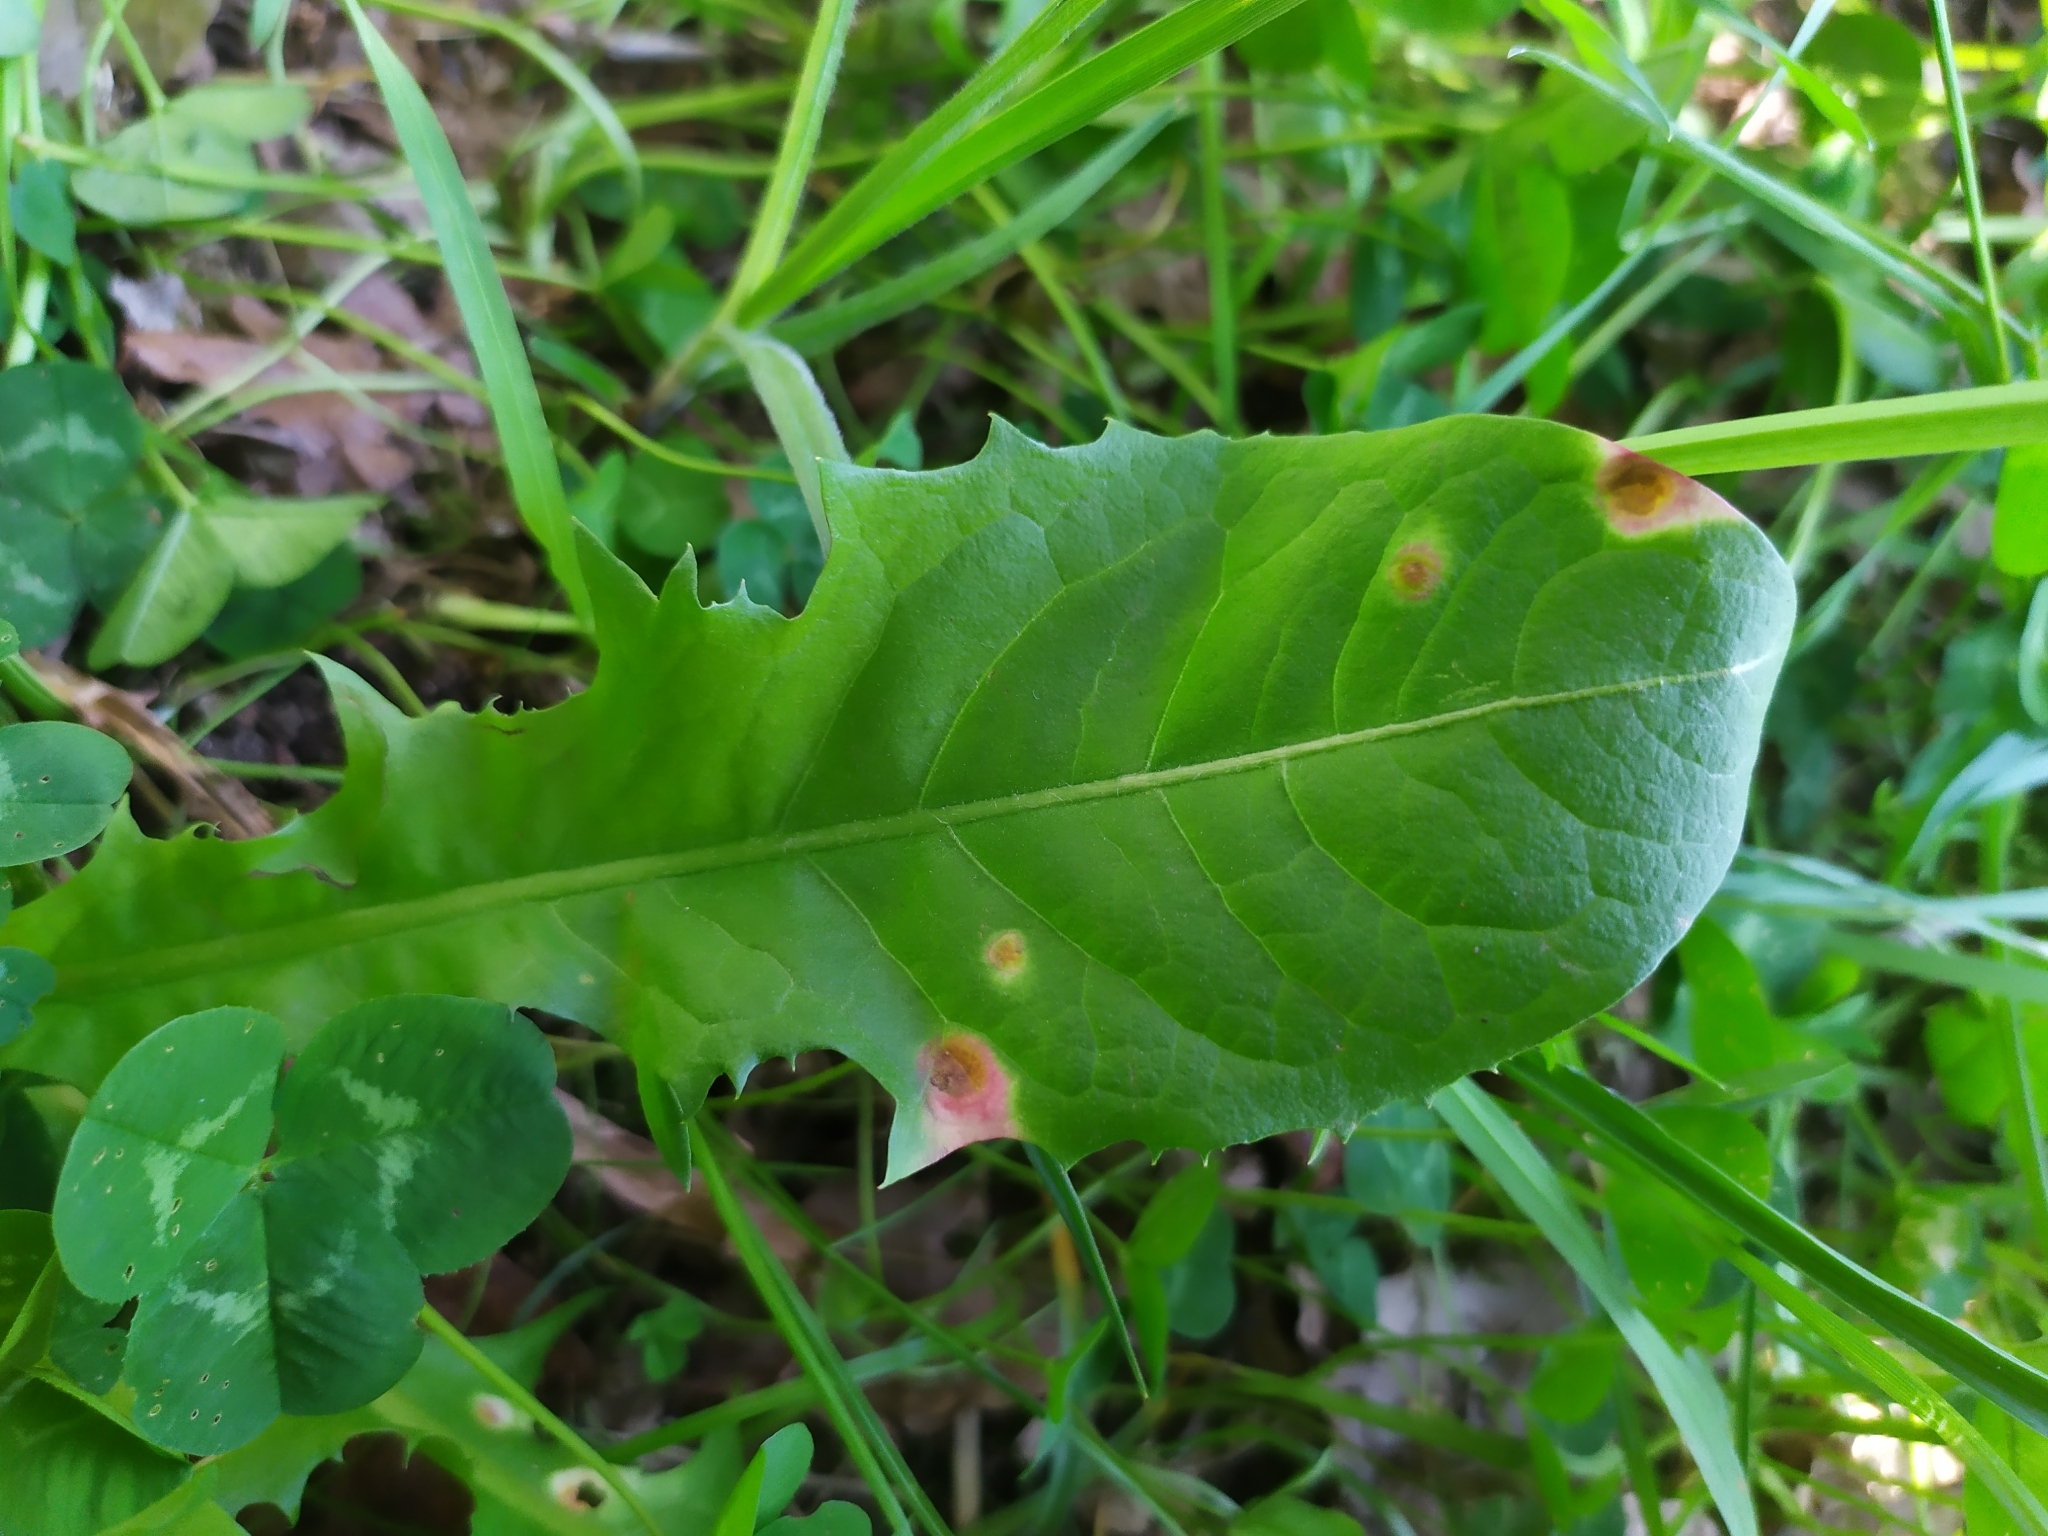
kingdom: Fungi
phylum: Basidiomycota
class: Pucciniomycetes
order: Pucciniales
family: Pucciniaceae
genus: Puccinia
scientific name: Puccinia dioicae
